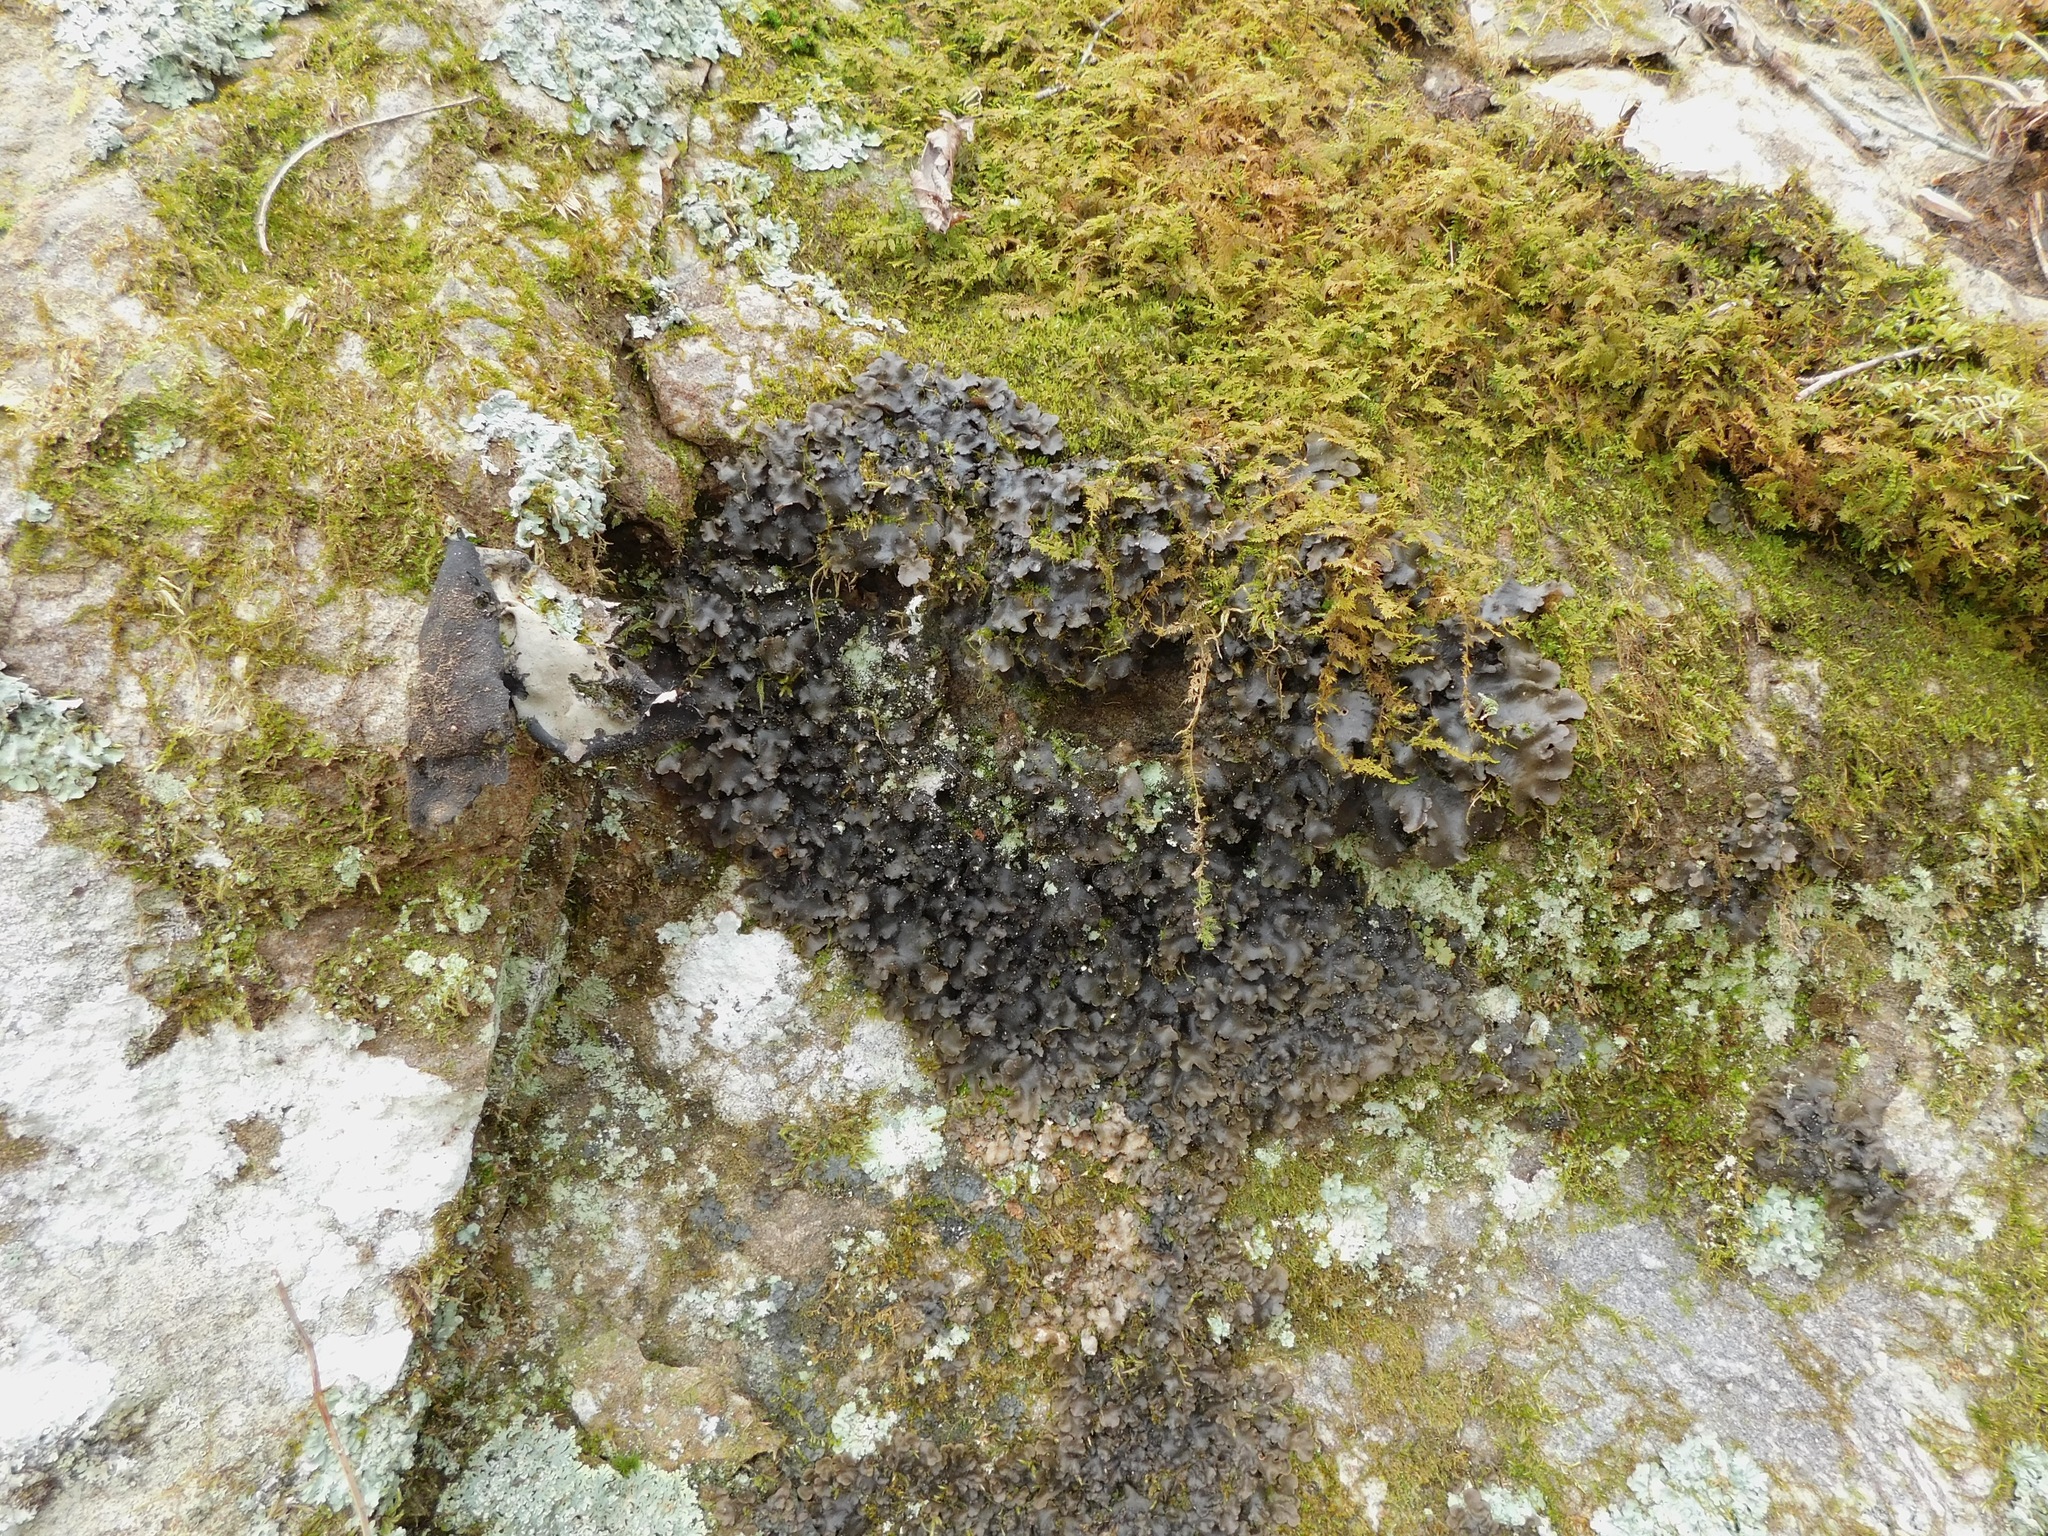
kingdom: Fungi
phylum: Ascomycota
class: Lecanoromycetes
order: Peltigerales
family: Lobariaceae
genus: Sticta
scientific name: Sticta beauvoisii
